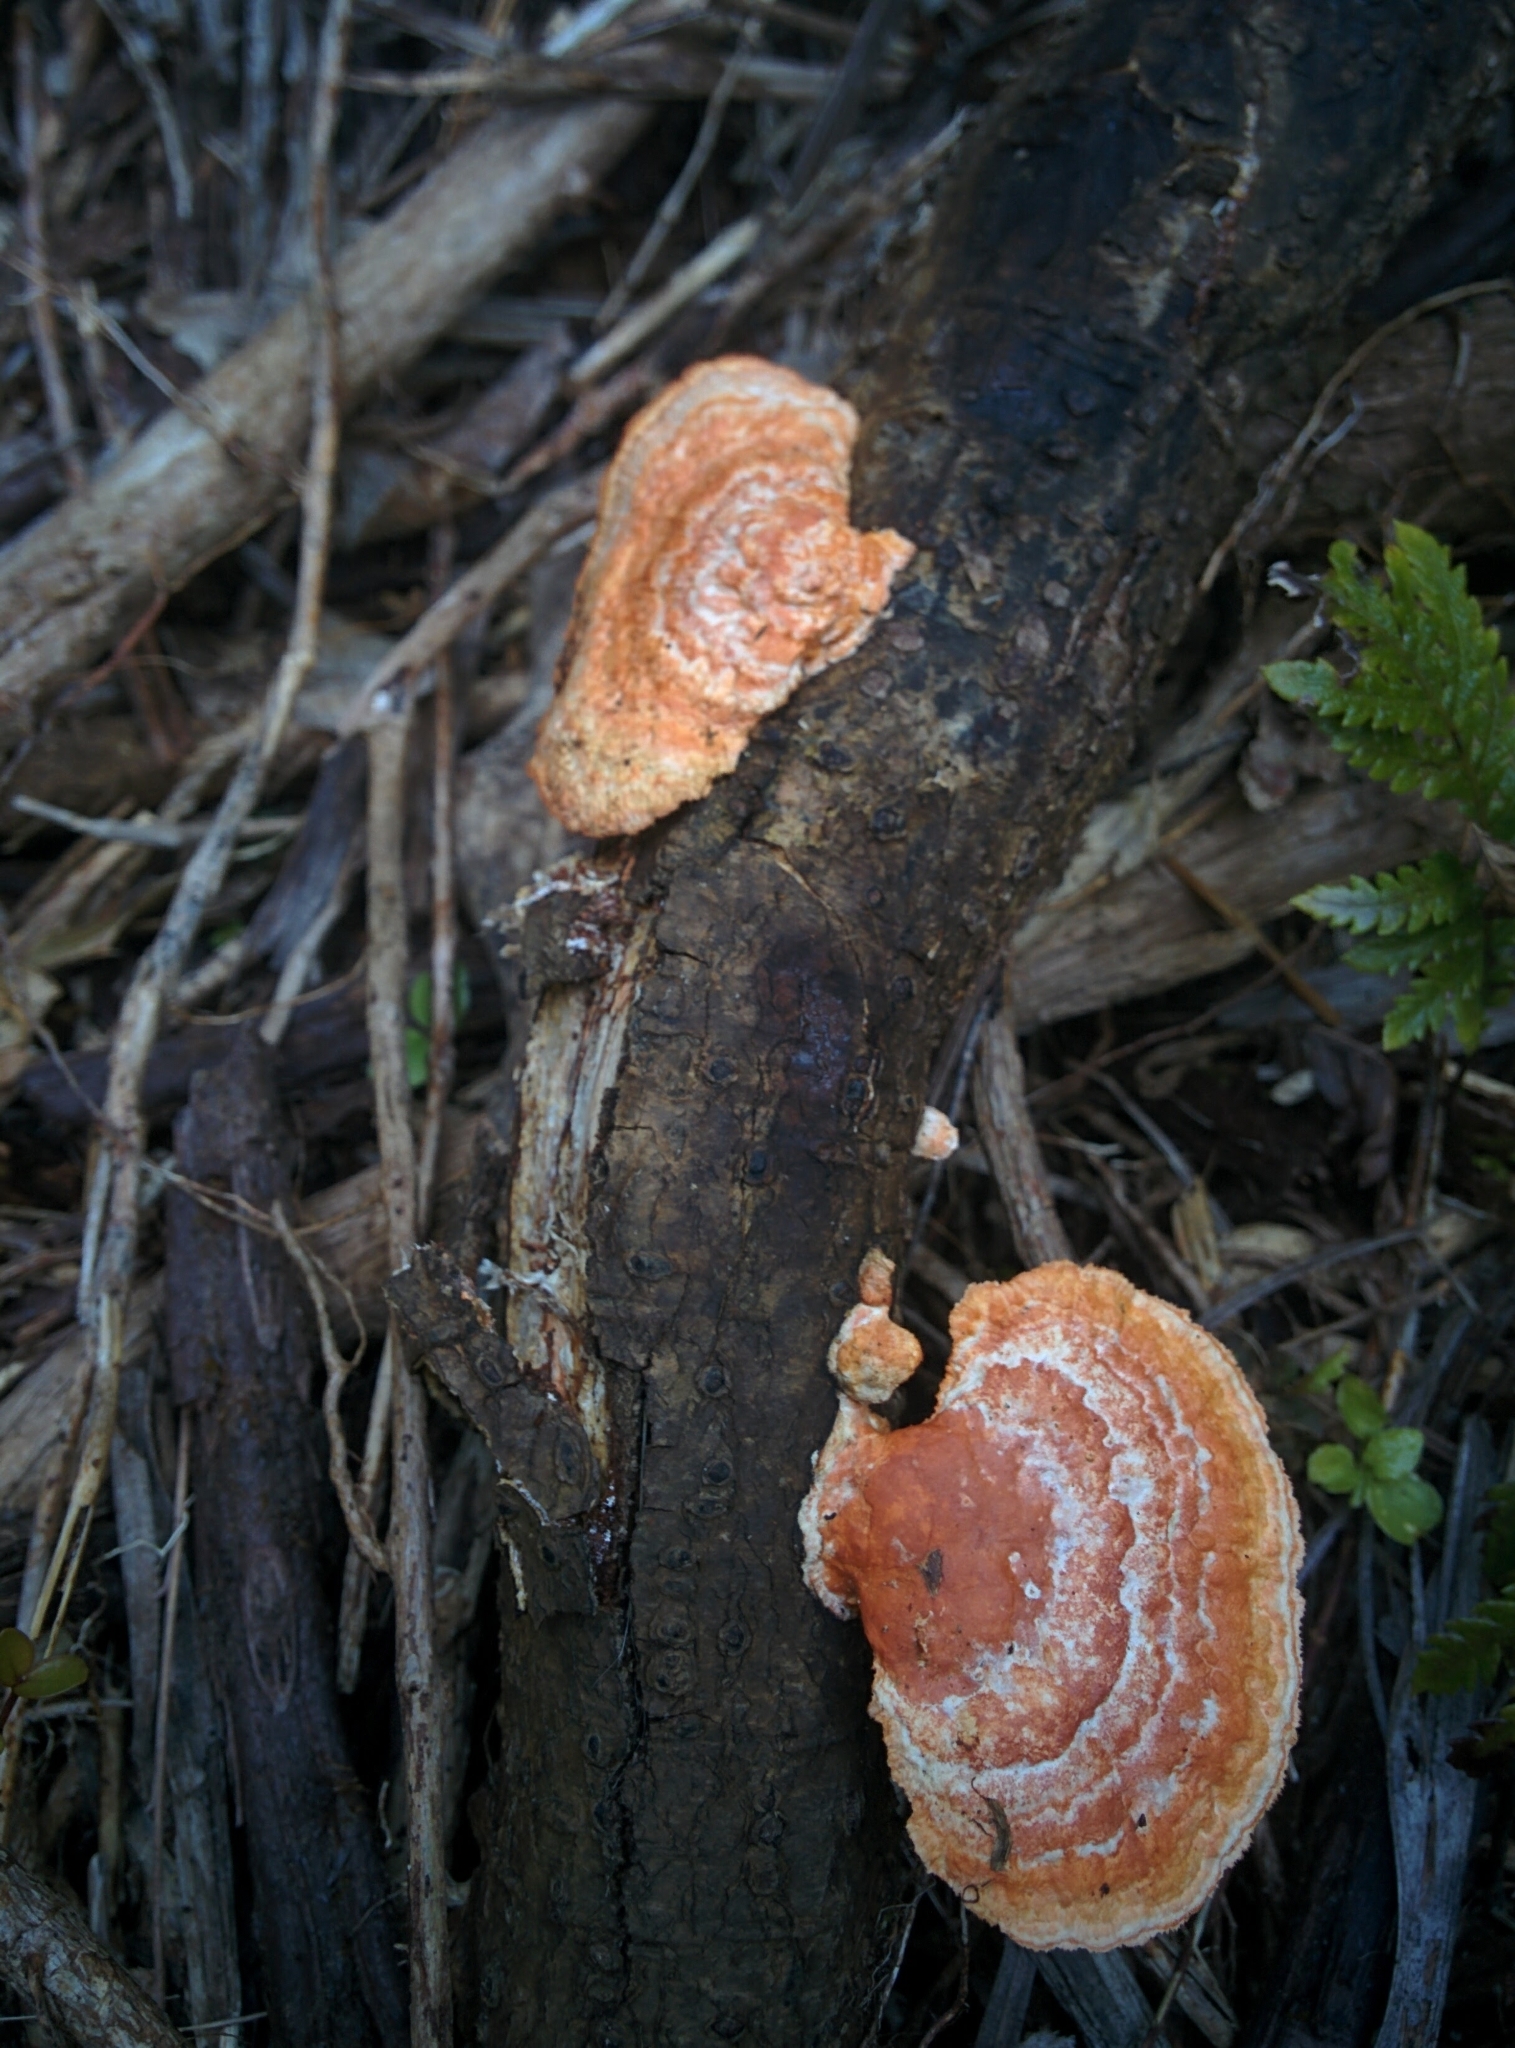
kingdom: Fungi
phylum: Basidiomycota
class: Agaricomycetes
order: Polyporales
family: Polyporaceae
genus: Trametes
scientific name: Trametes coccinea
